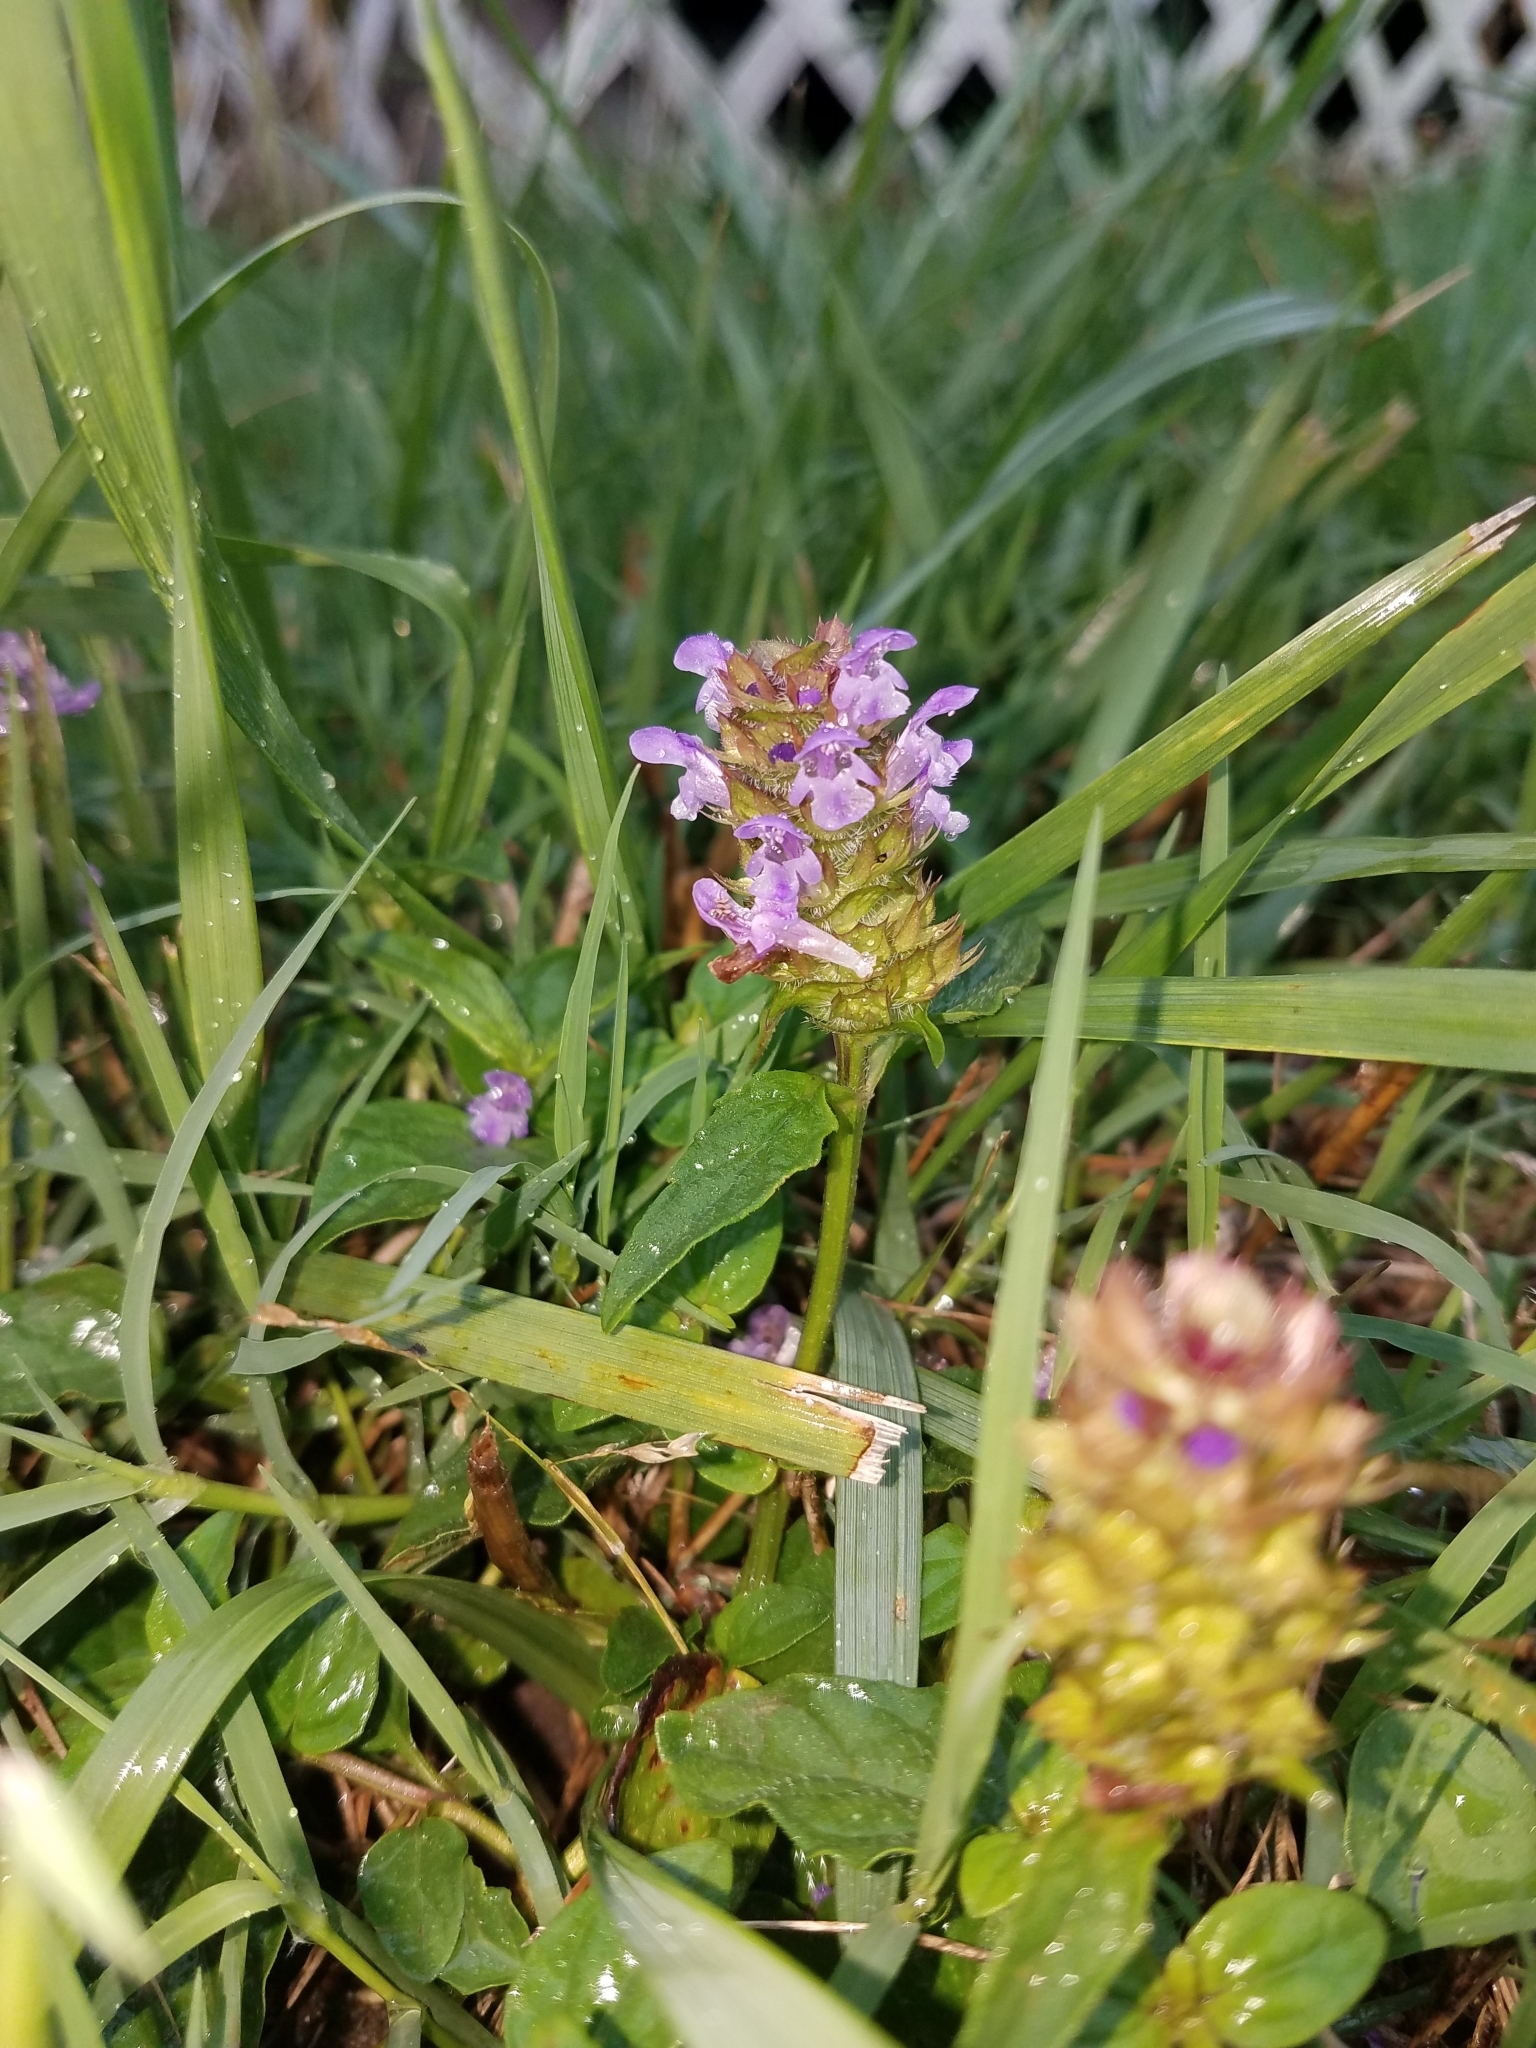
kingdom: Plantae
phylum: Tracheophyta
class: Magnoliopsida
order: Lamiales
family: Lamiaceae
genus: Prunella
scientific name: Prunella vulgaris
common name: Heal-all
